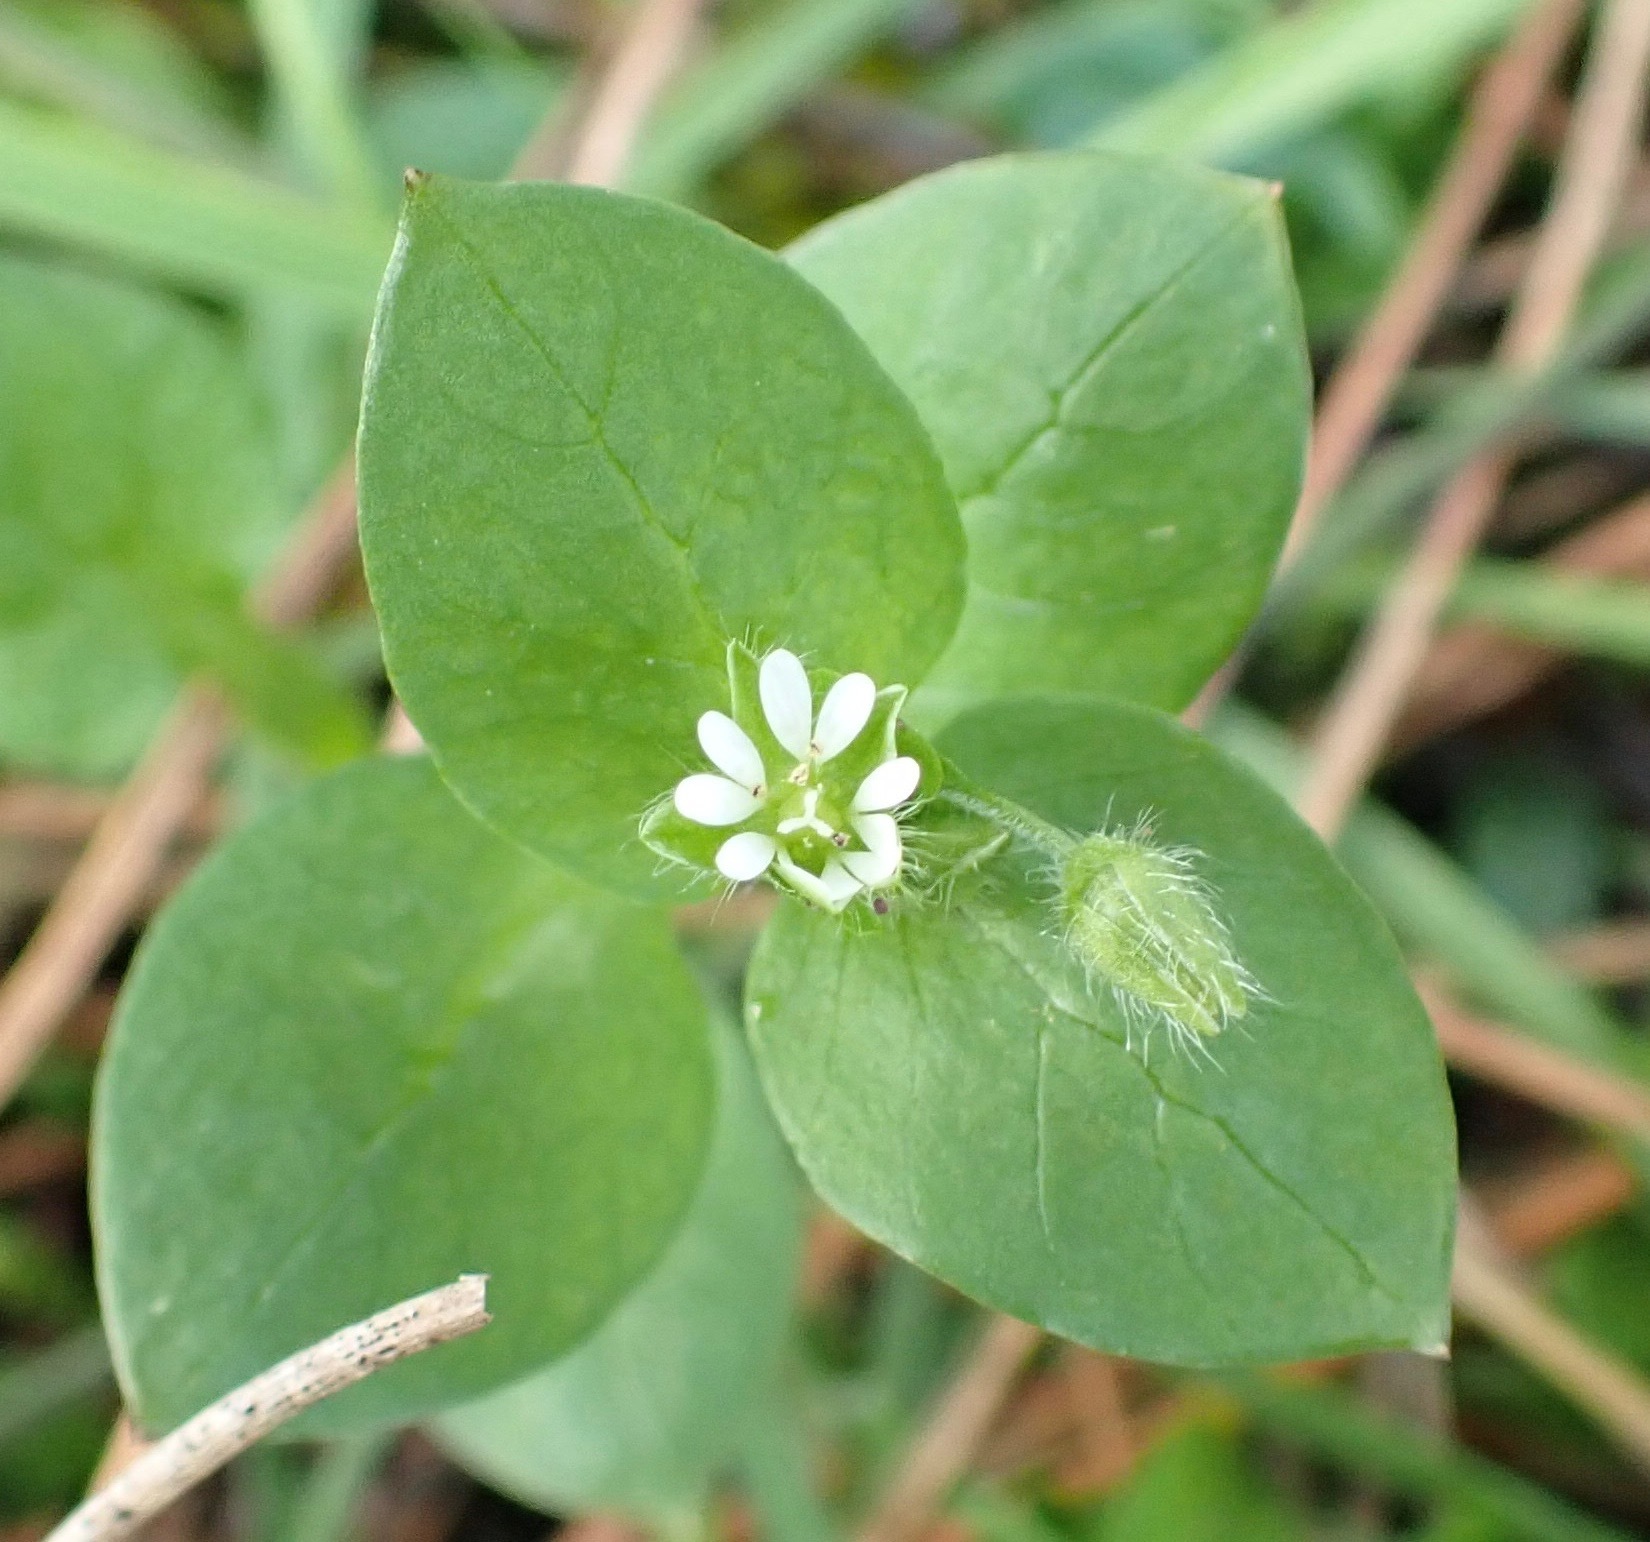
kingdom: Plantae
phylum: Tracheophyta
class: Magnoliopsida
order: Caryophyllales
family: Caryophyllaceae
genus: Stellaria
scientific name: Stellaria media
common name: Common chickweed
